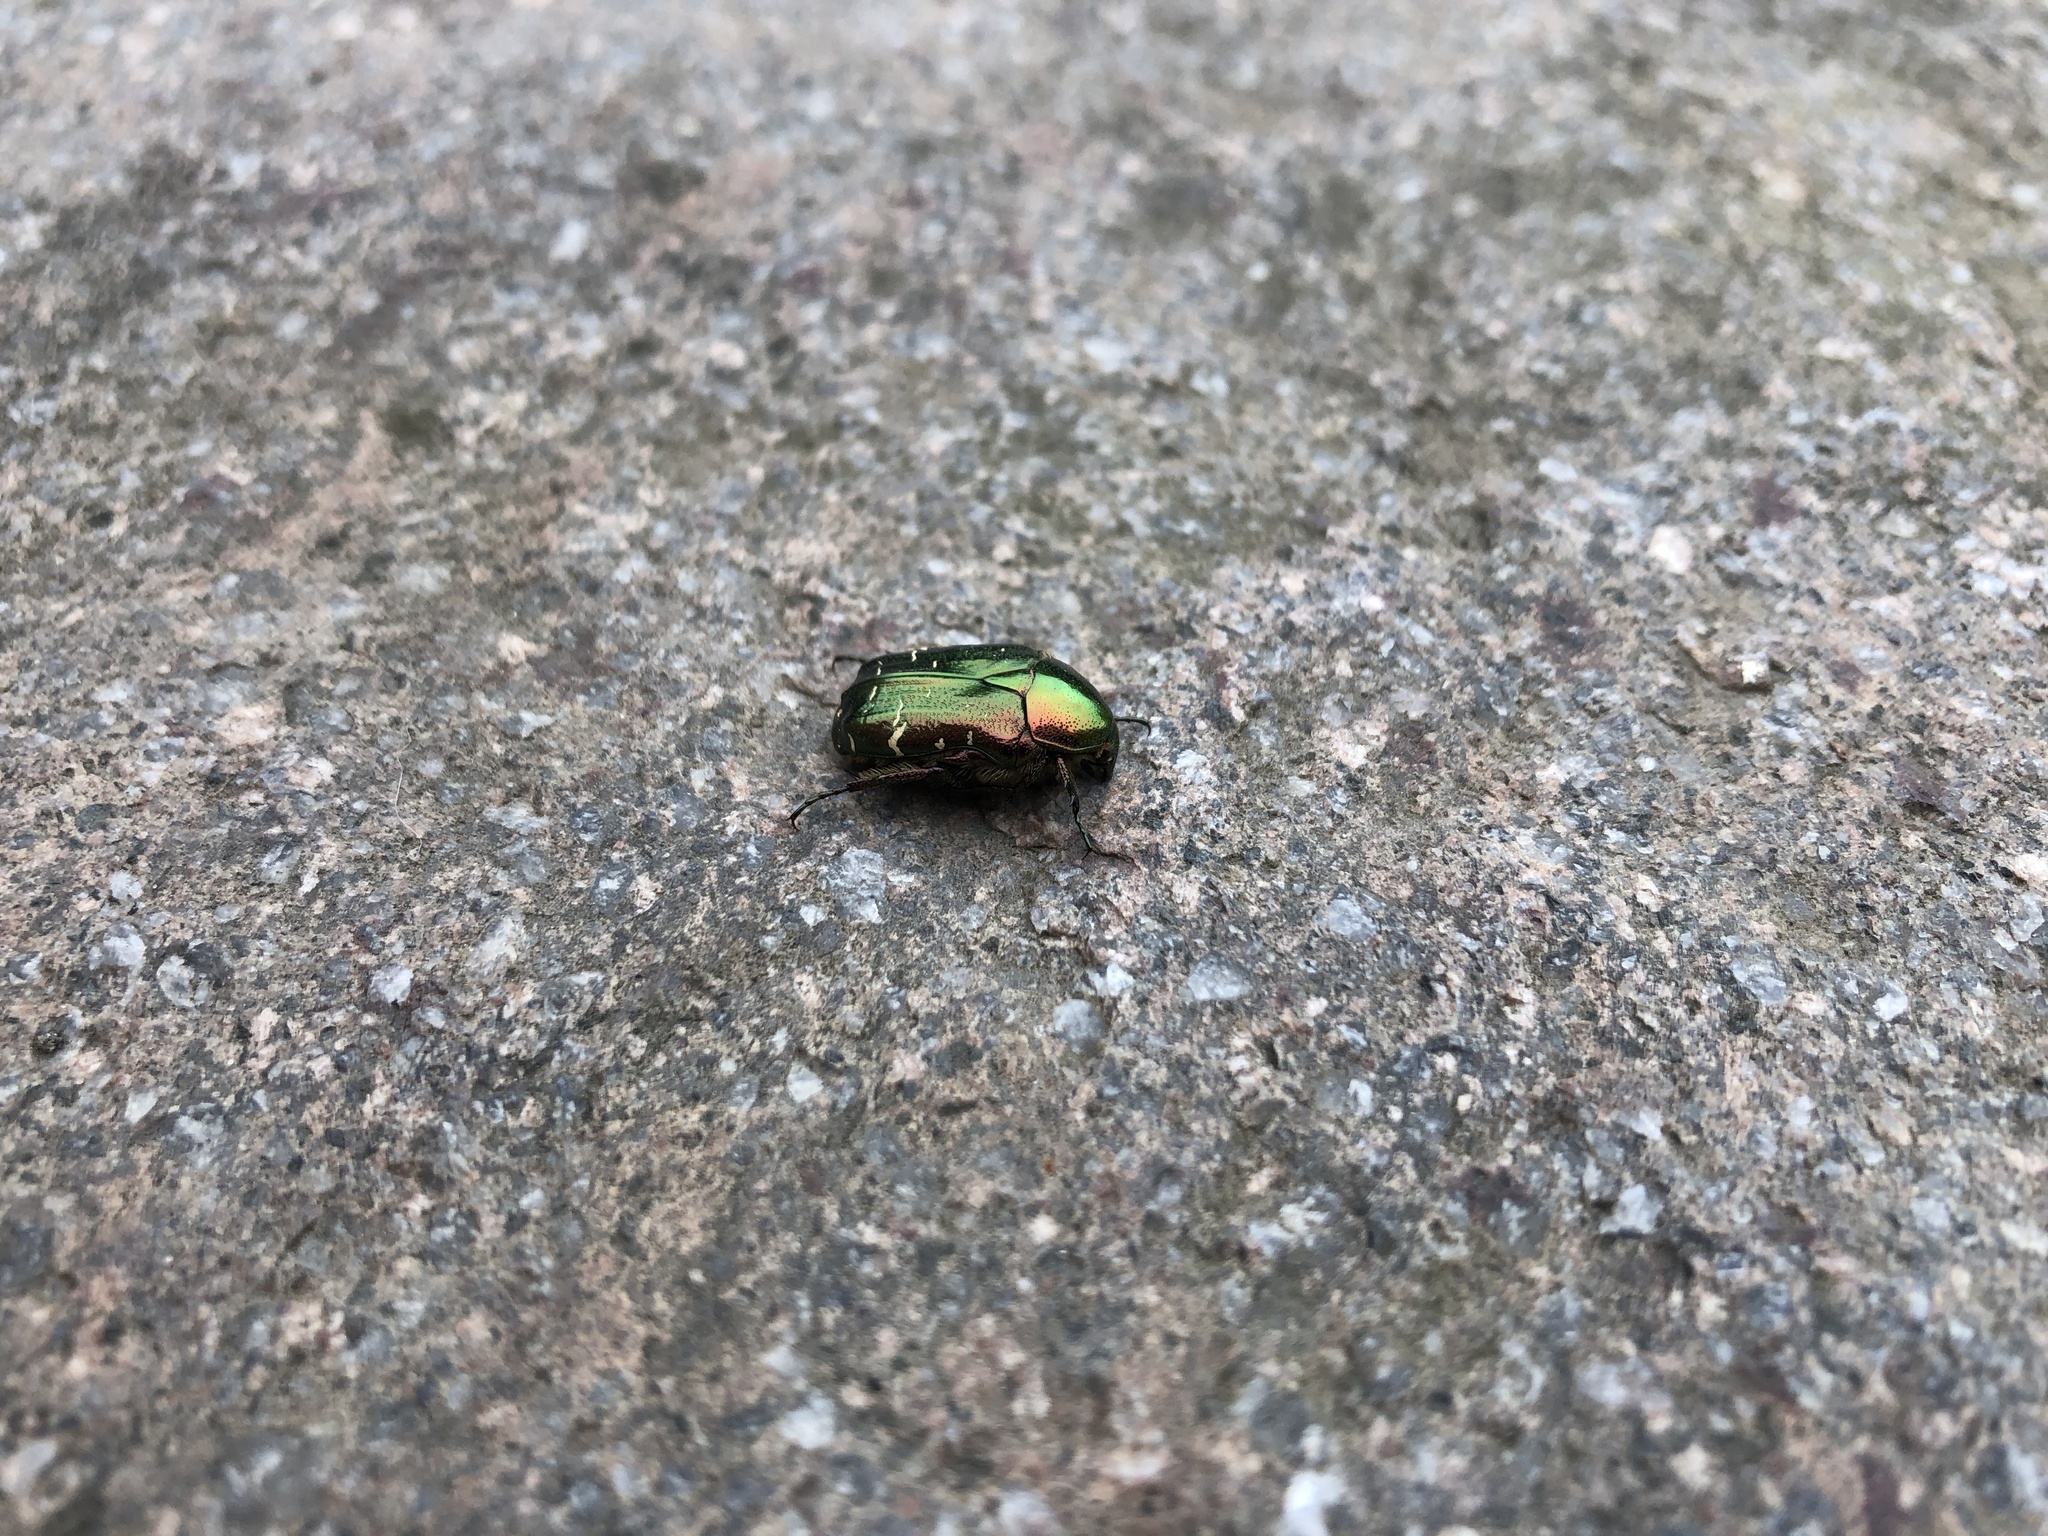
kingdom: Animalia
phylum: Arthropoda
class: Insecta
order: Coleoptera
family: Scarabaeidae
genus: Cetonia
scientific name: Cetonia aurata
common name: Rose chafer
